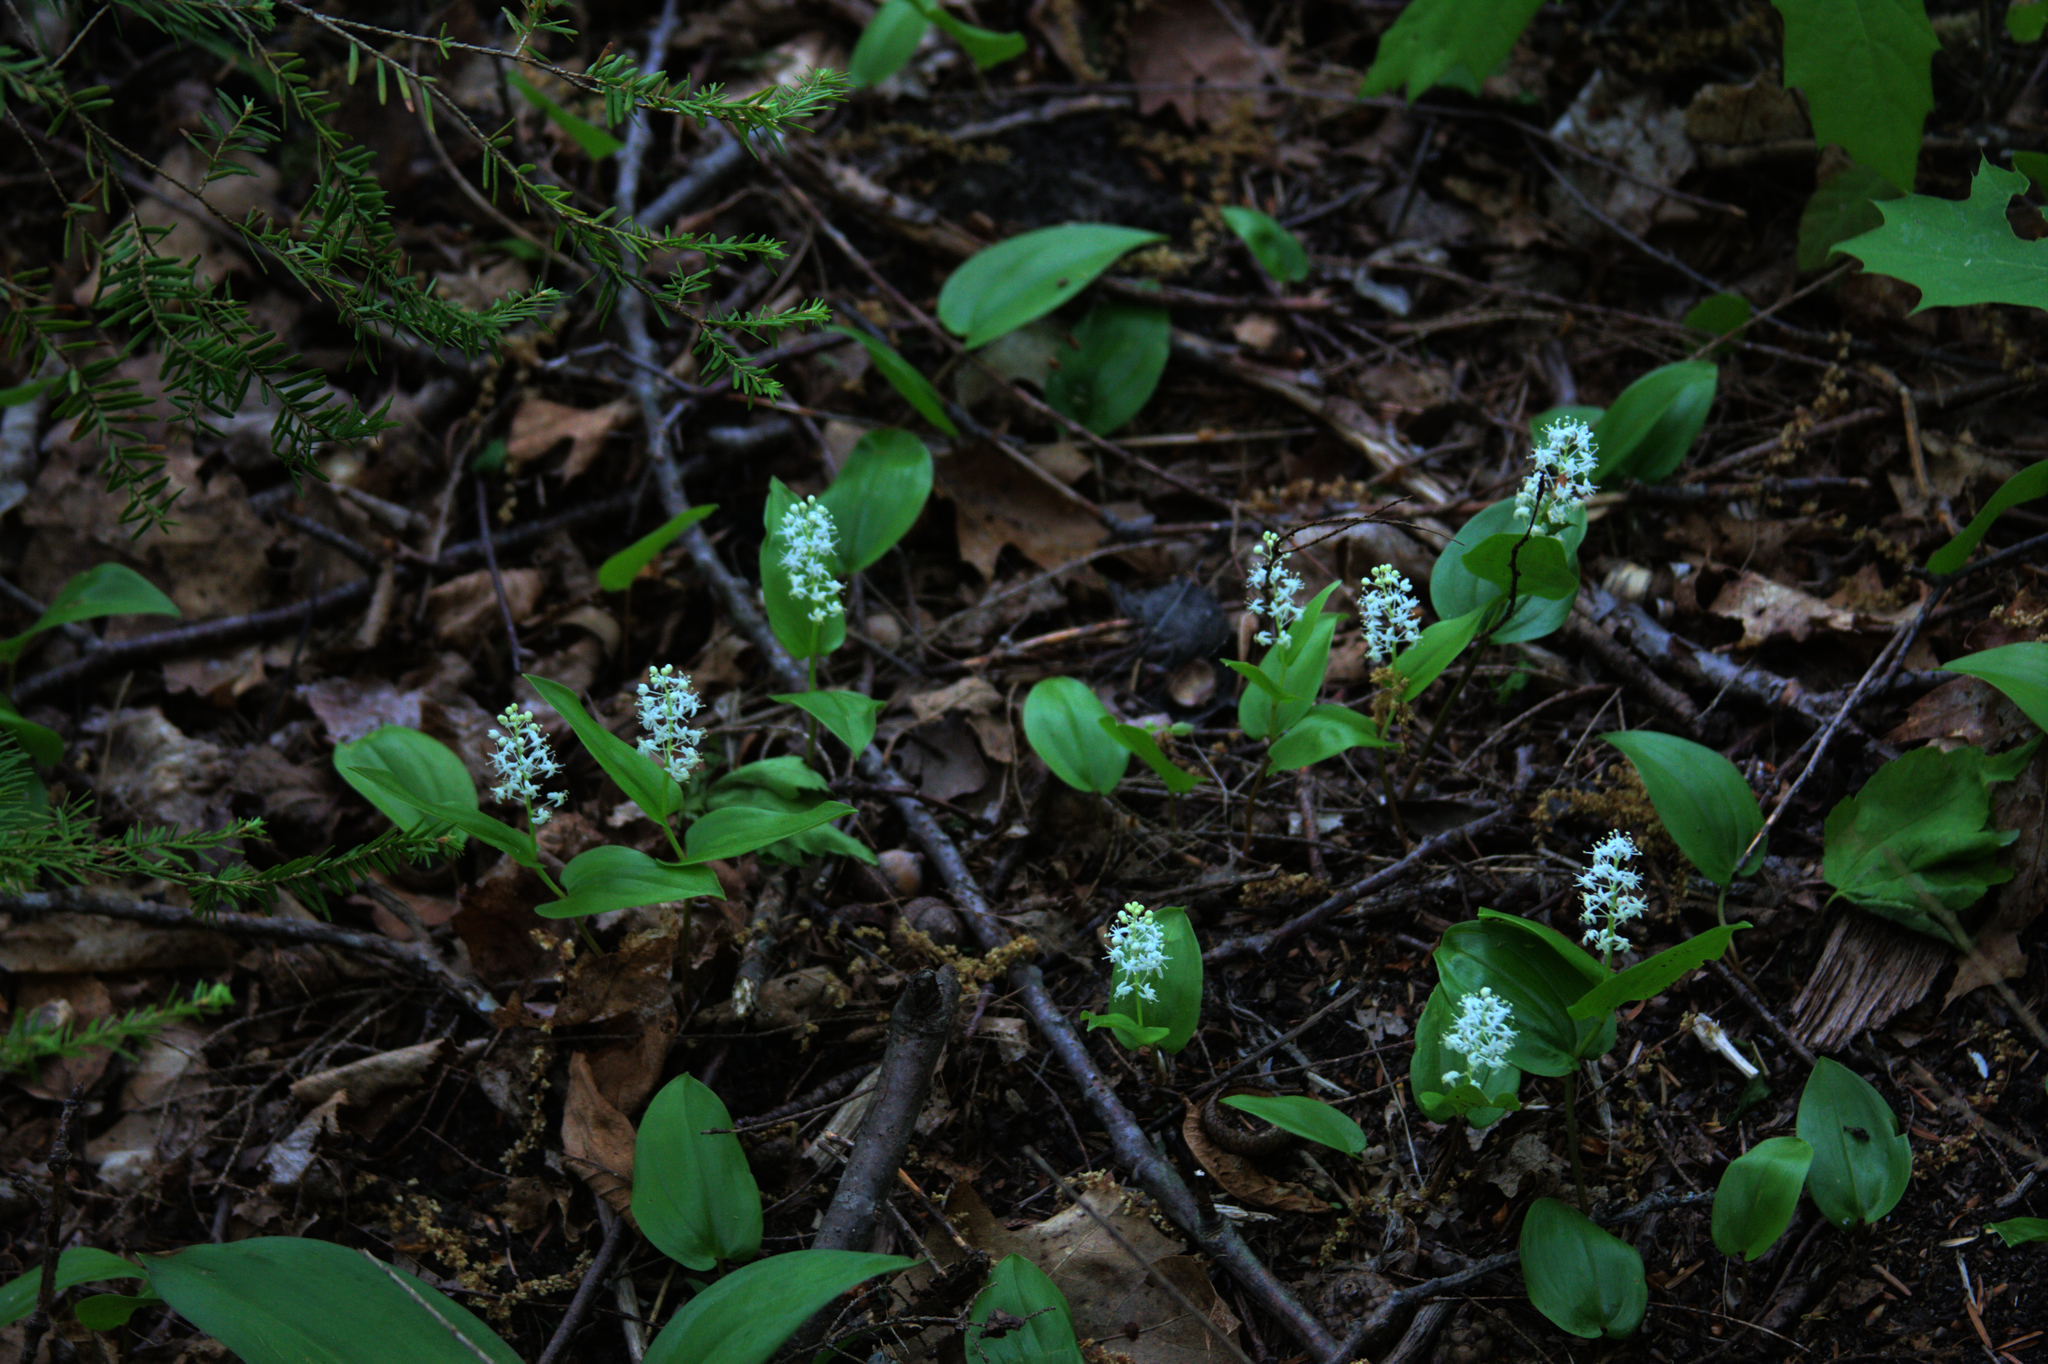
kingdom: Plantae
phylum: Tracheophyta
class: Liliopsida
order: Asparagales
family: Asparagaceae
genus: Maianthemum
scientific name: Maianthemum canadense
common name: False lily-of-the-valley
